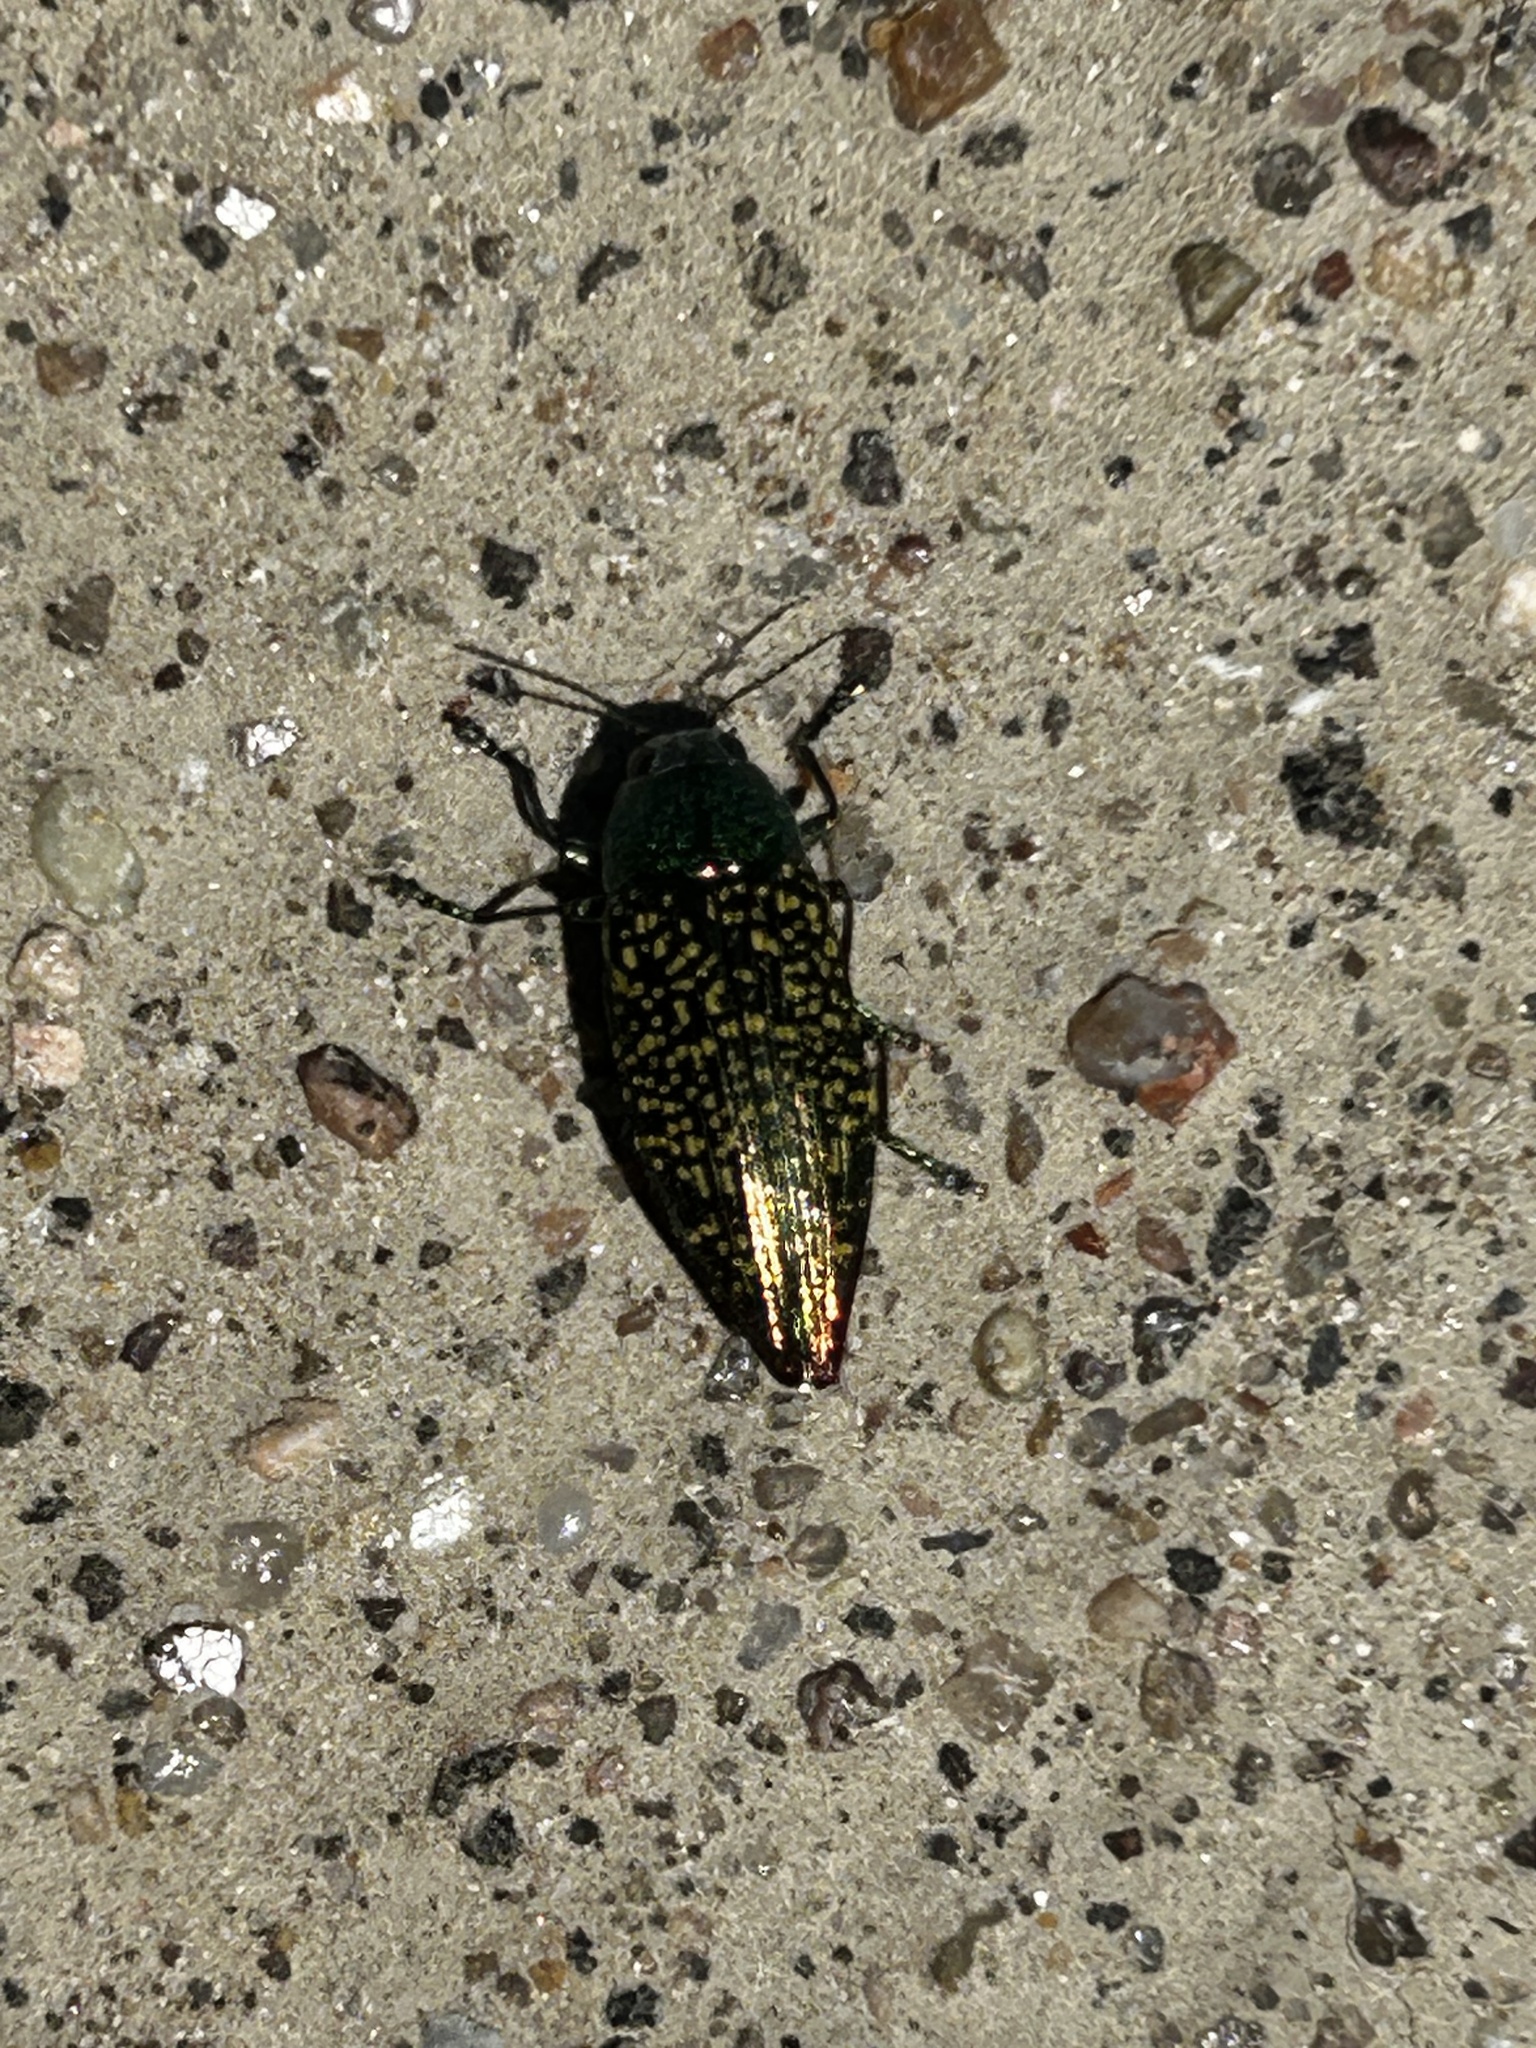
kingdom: Animalia
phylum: Arthropoda
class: Insecta
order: Coleoptera
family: Buprestidae
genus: Buprestis
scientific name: Buprestis confluenta
